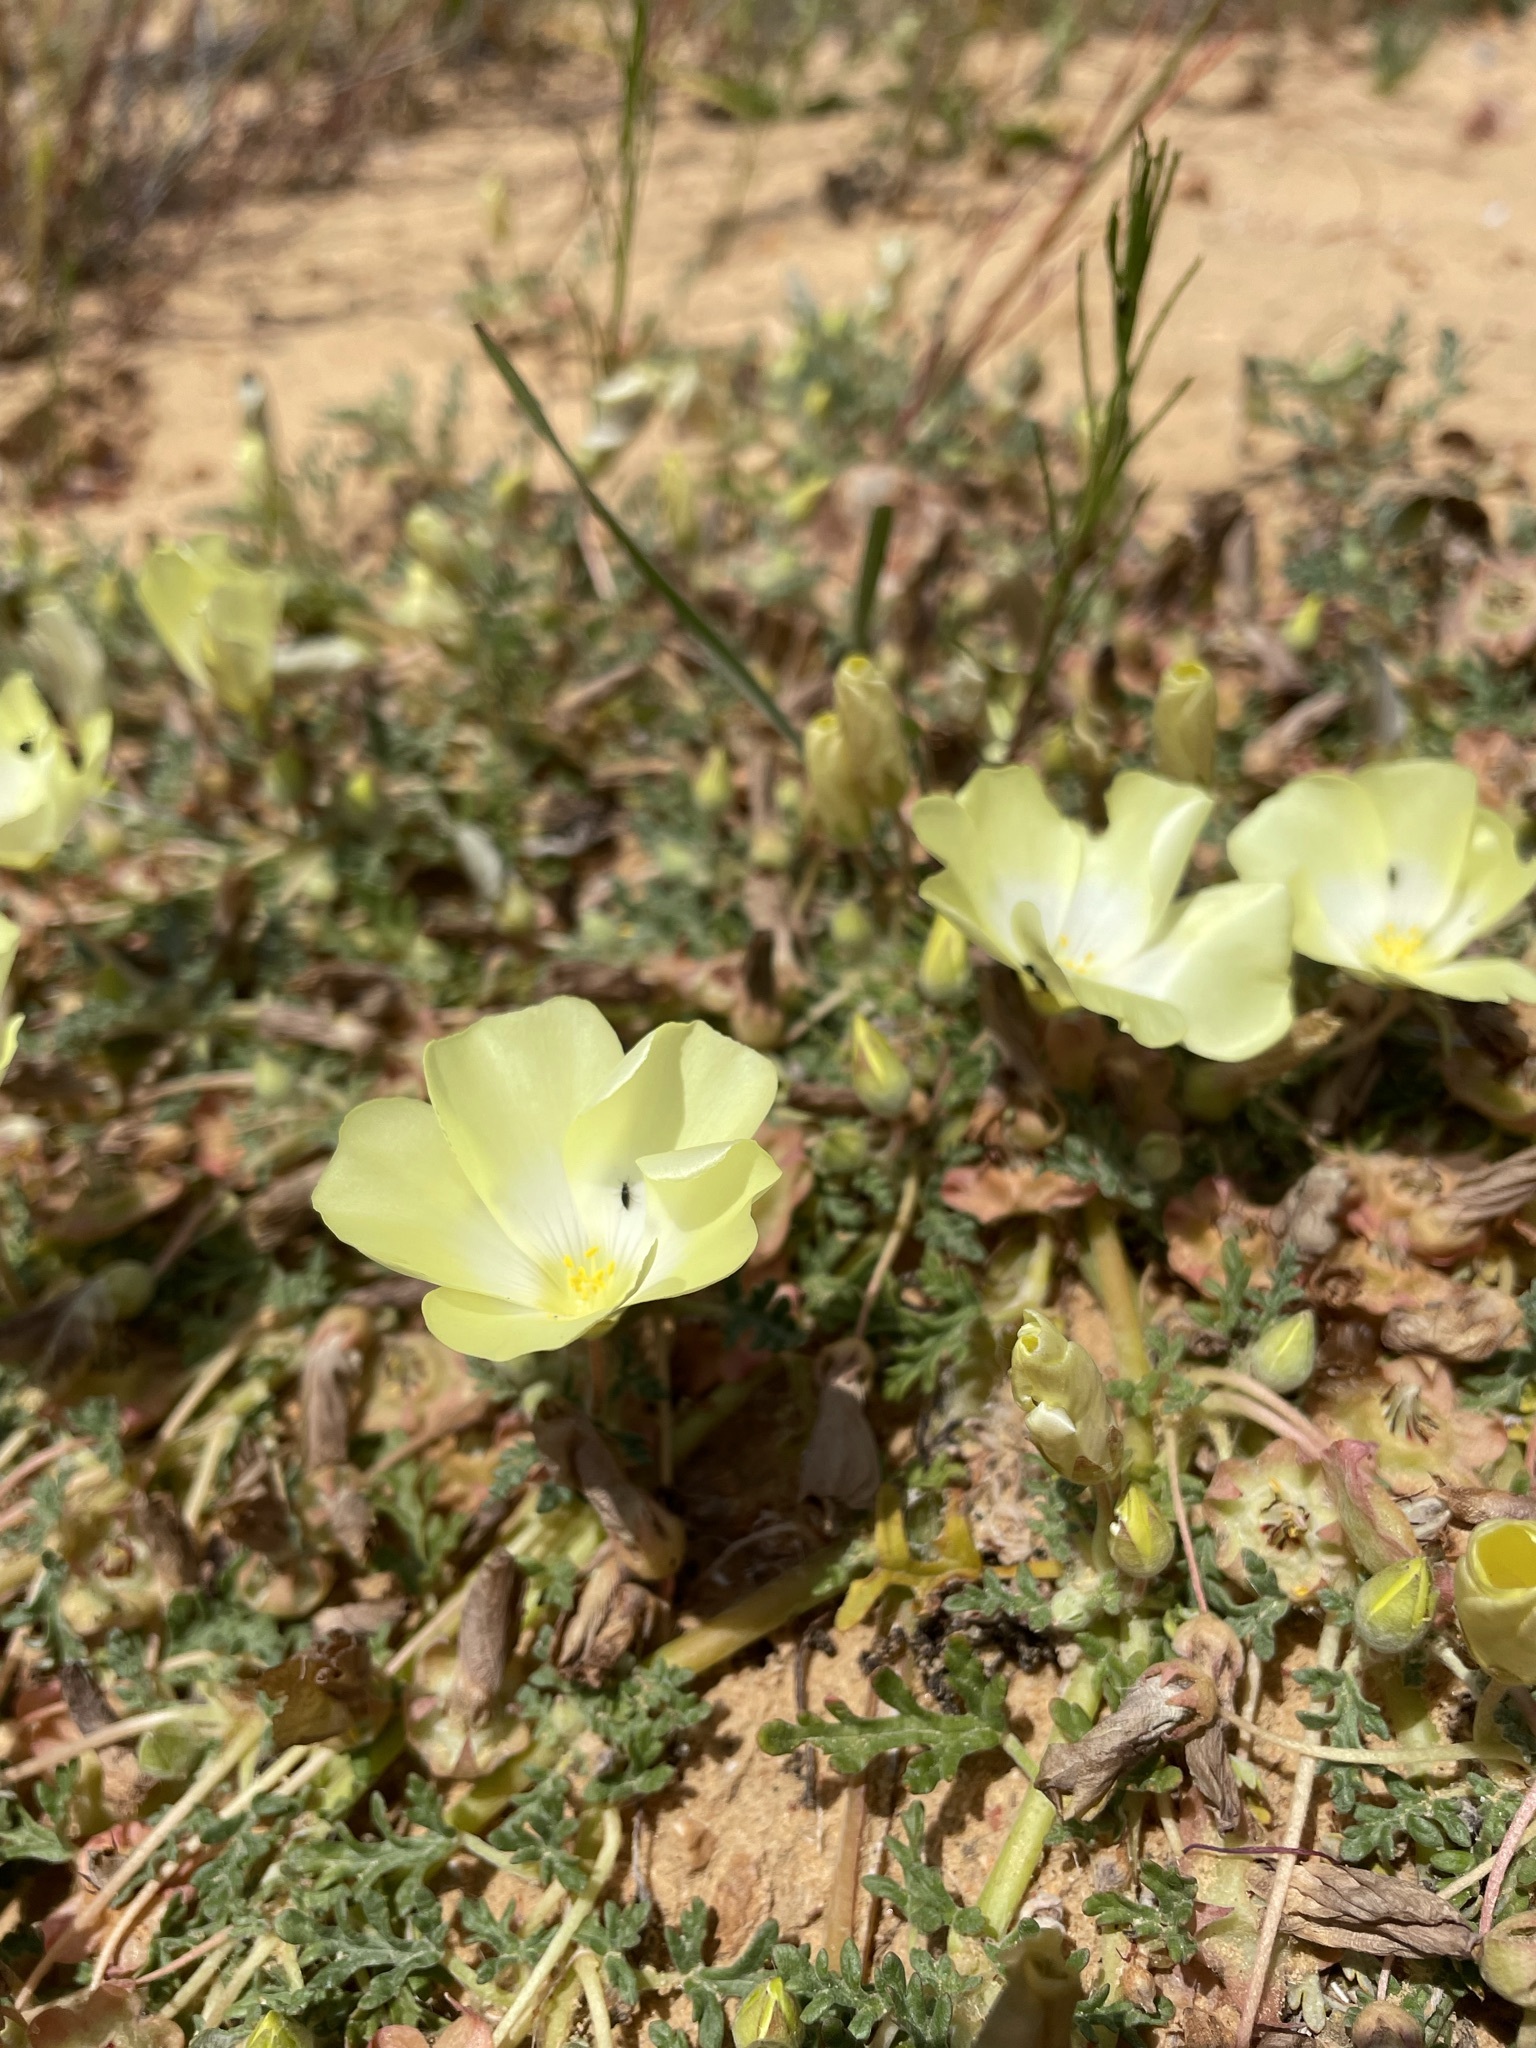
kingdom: Plantae
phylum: Tracheophyta
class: Magnoliopsida
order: Malvales
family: Neuradaceae
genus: Grielum
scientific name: Grielum humifusum
